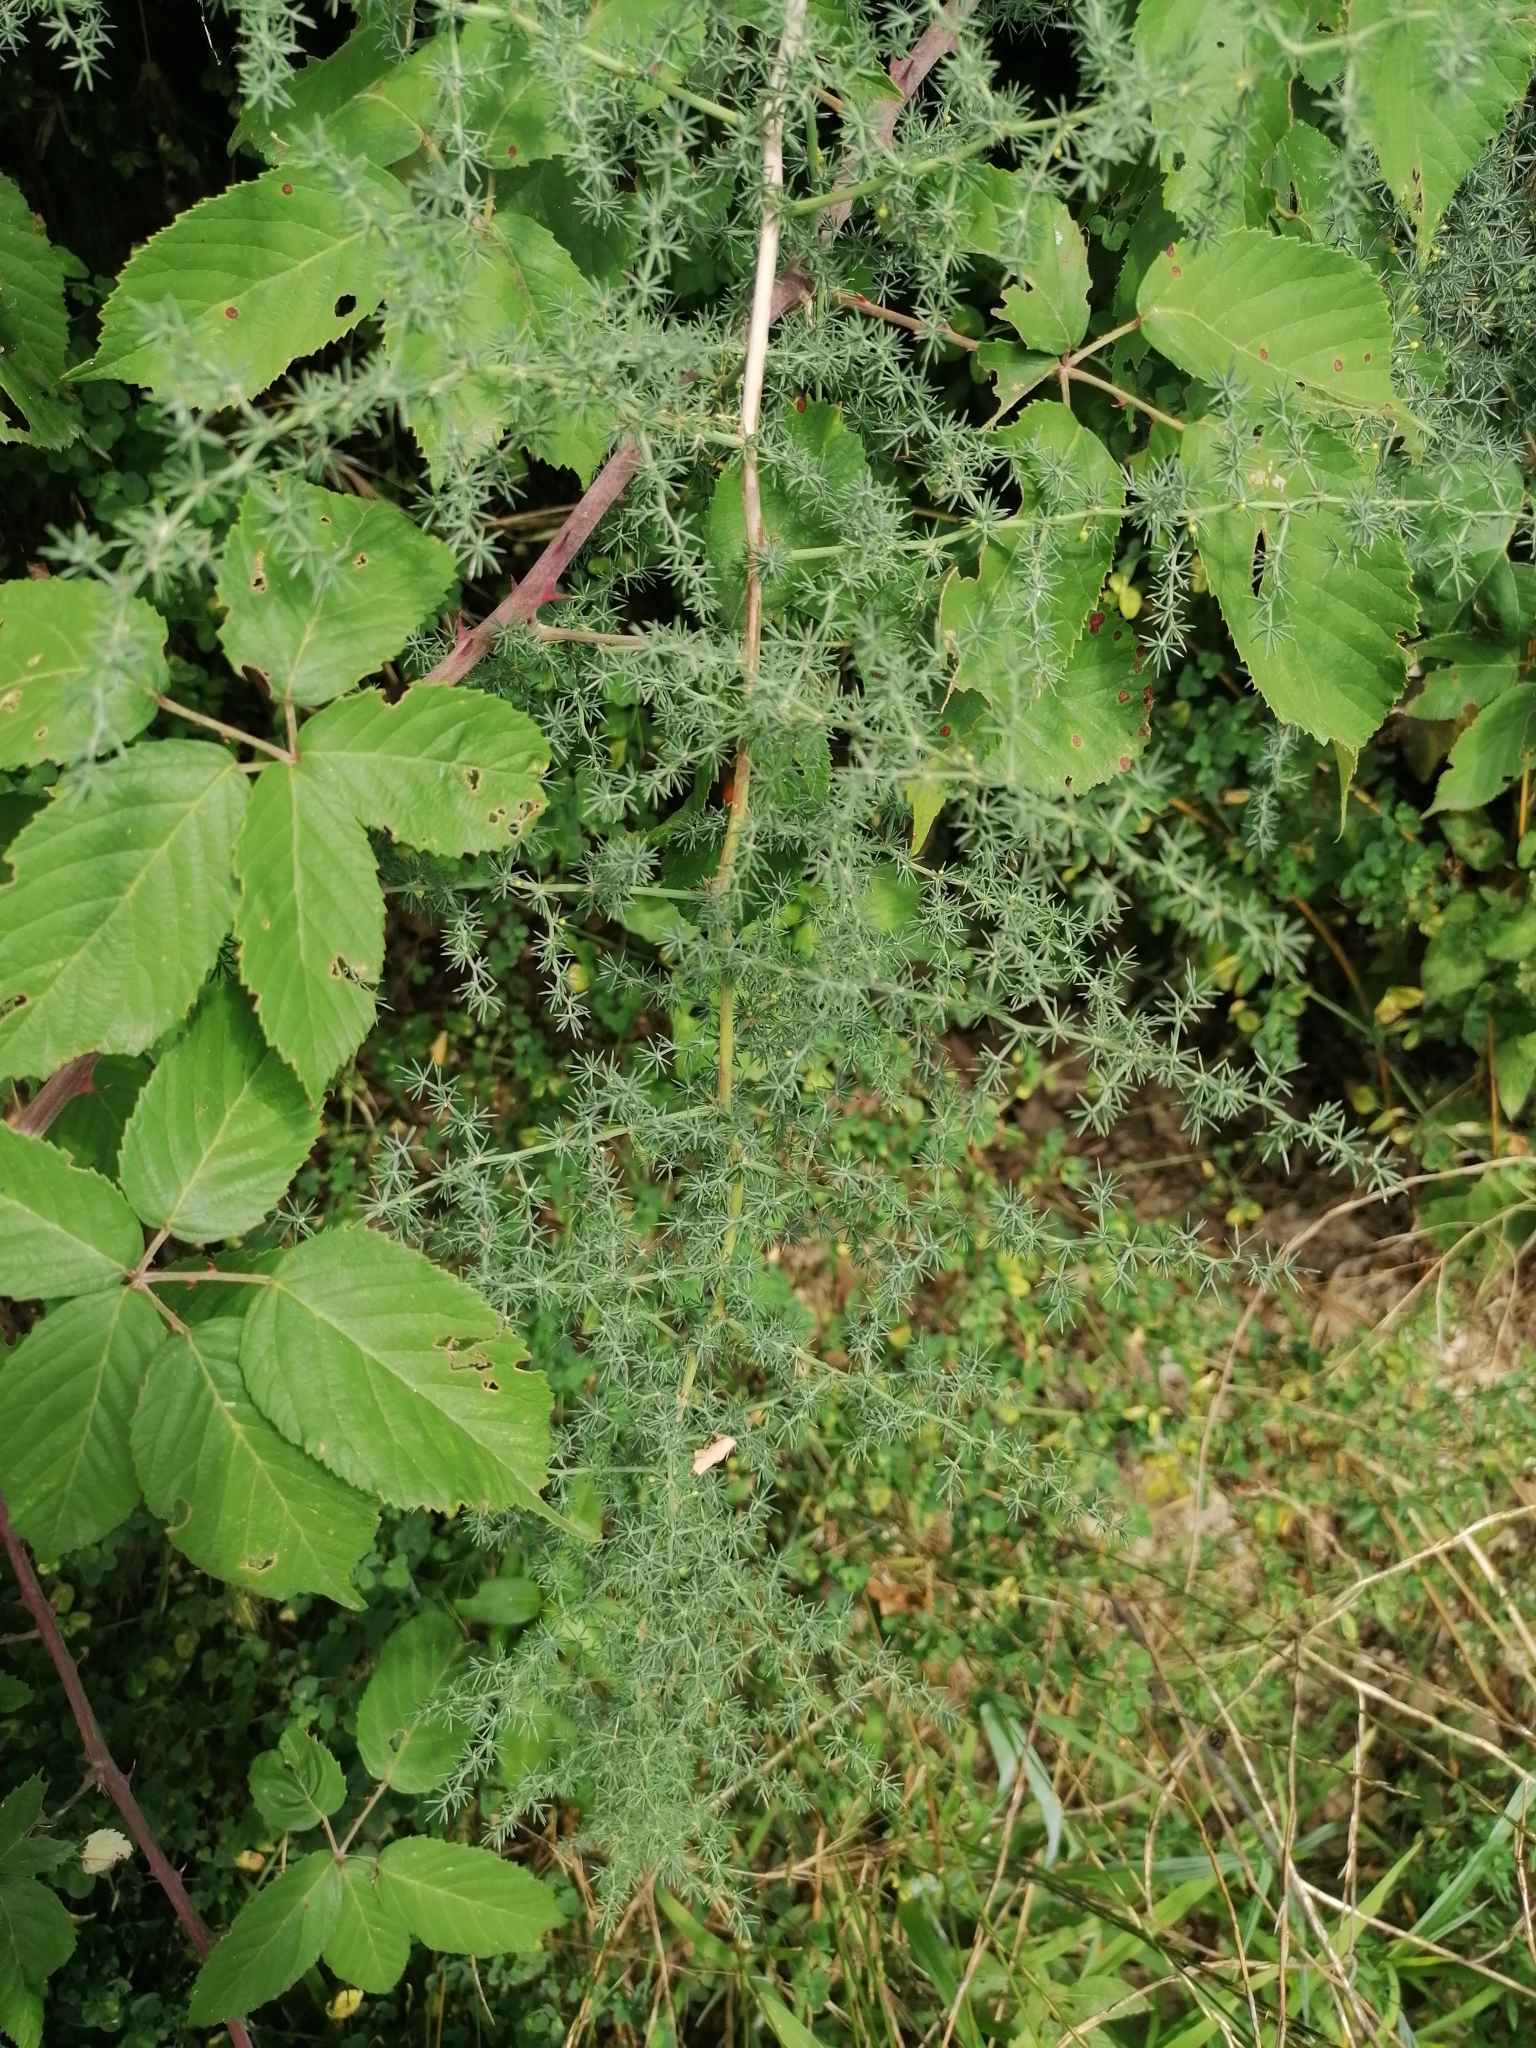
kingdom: Plantae
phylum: Tracheophyta
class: Liliopsida
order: Asparagales
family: Asparagaceae
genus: Asparagus
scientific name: Asparagus acutifolius
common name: Wild asparagus
